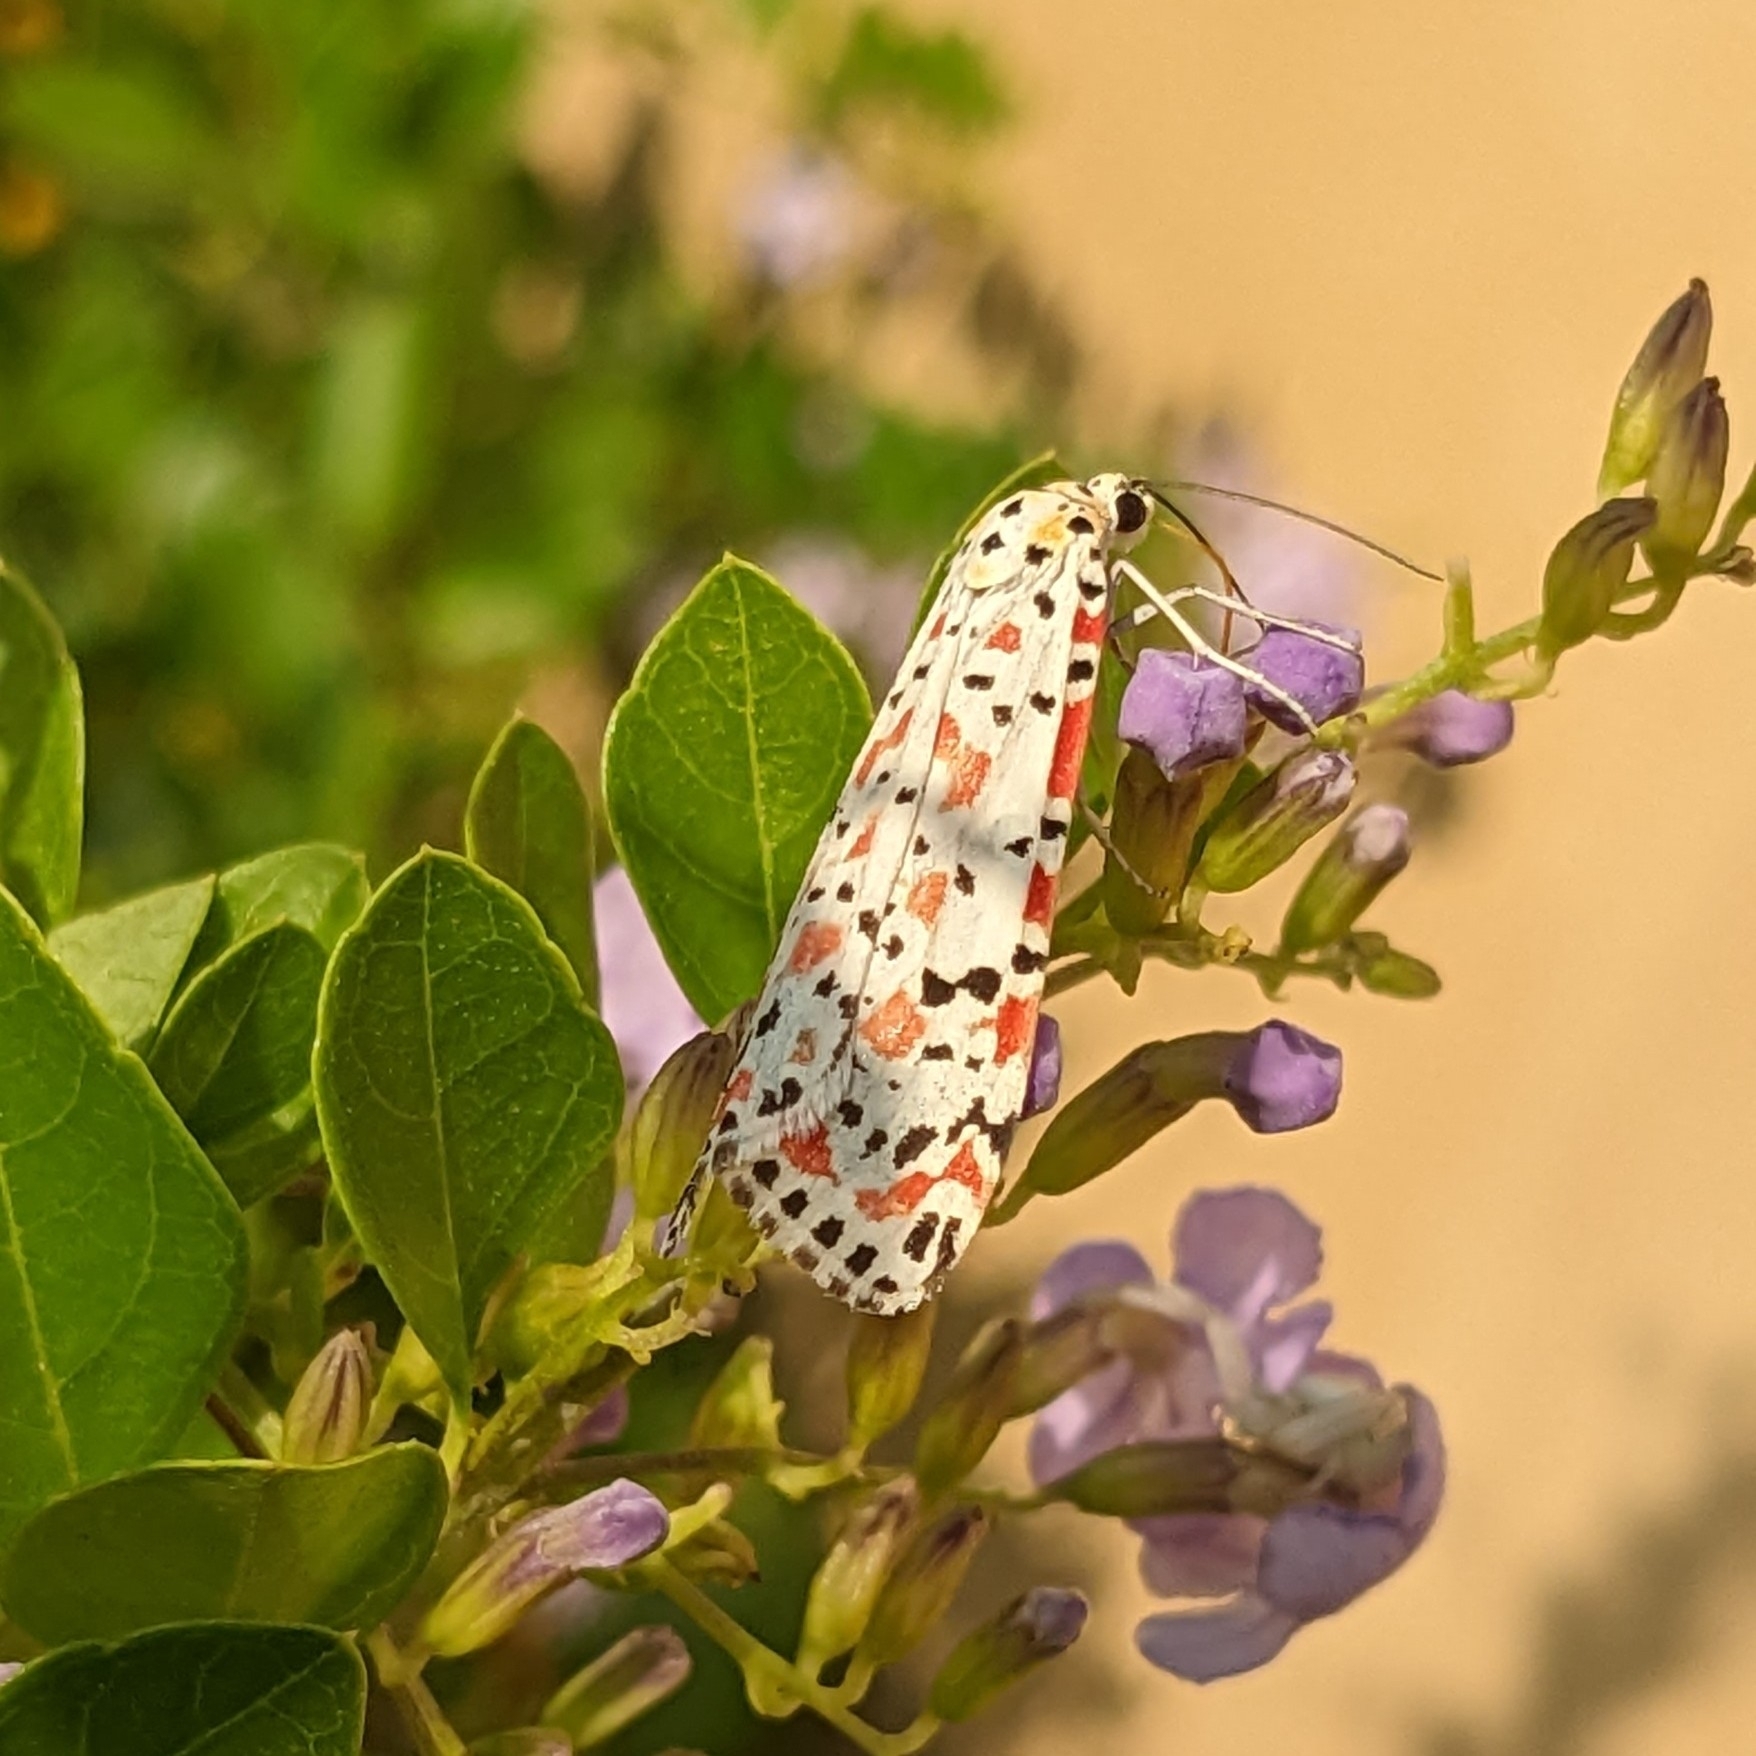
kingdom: Animalia
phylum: Arthropoda
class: Insecta
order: Lepidoptera
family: Erebidae
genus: Utetheisa
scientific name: Utetheisa pulchella
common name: Crimson speckled
